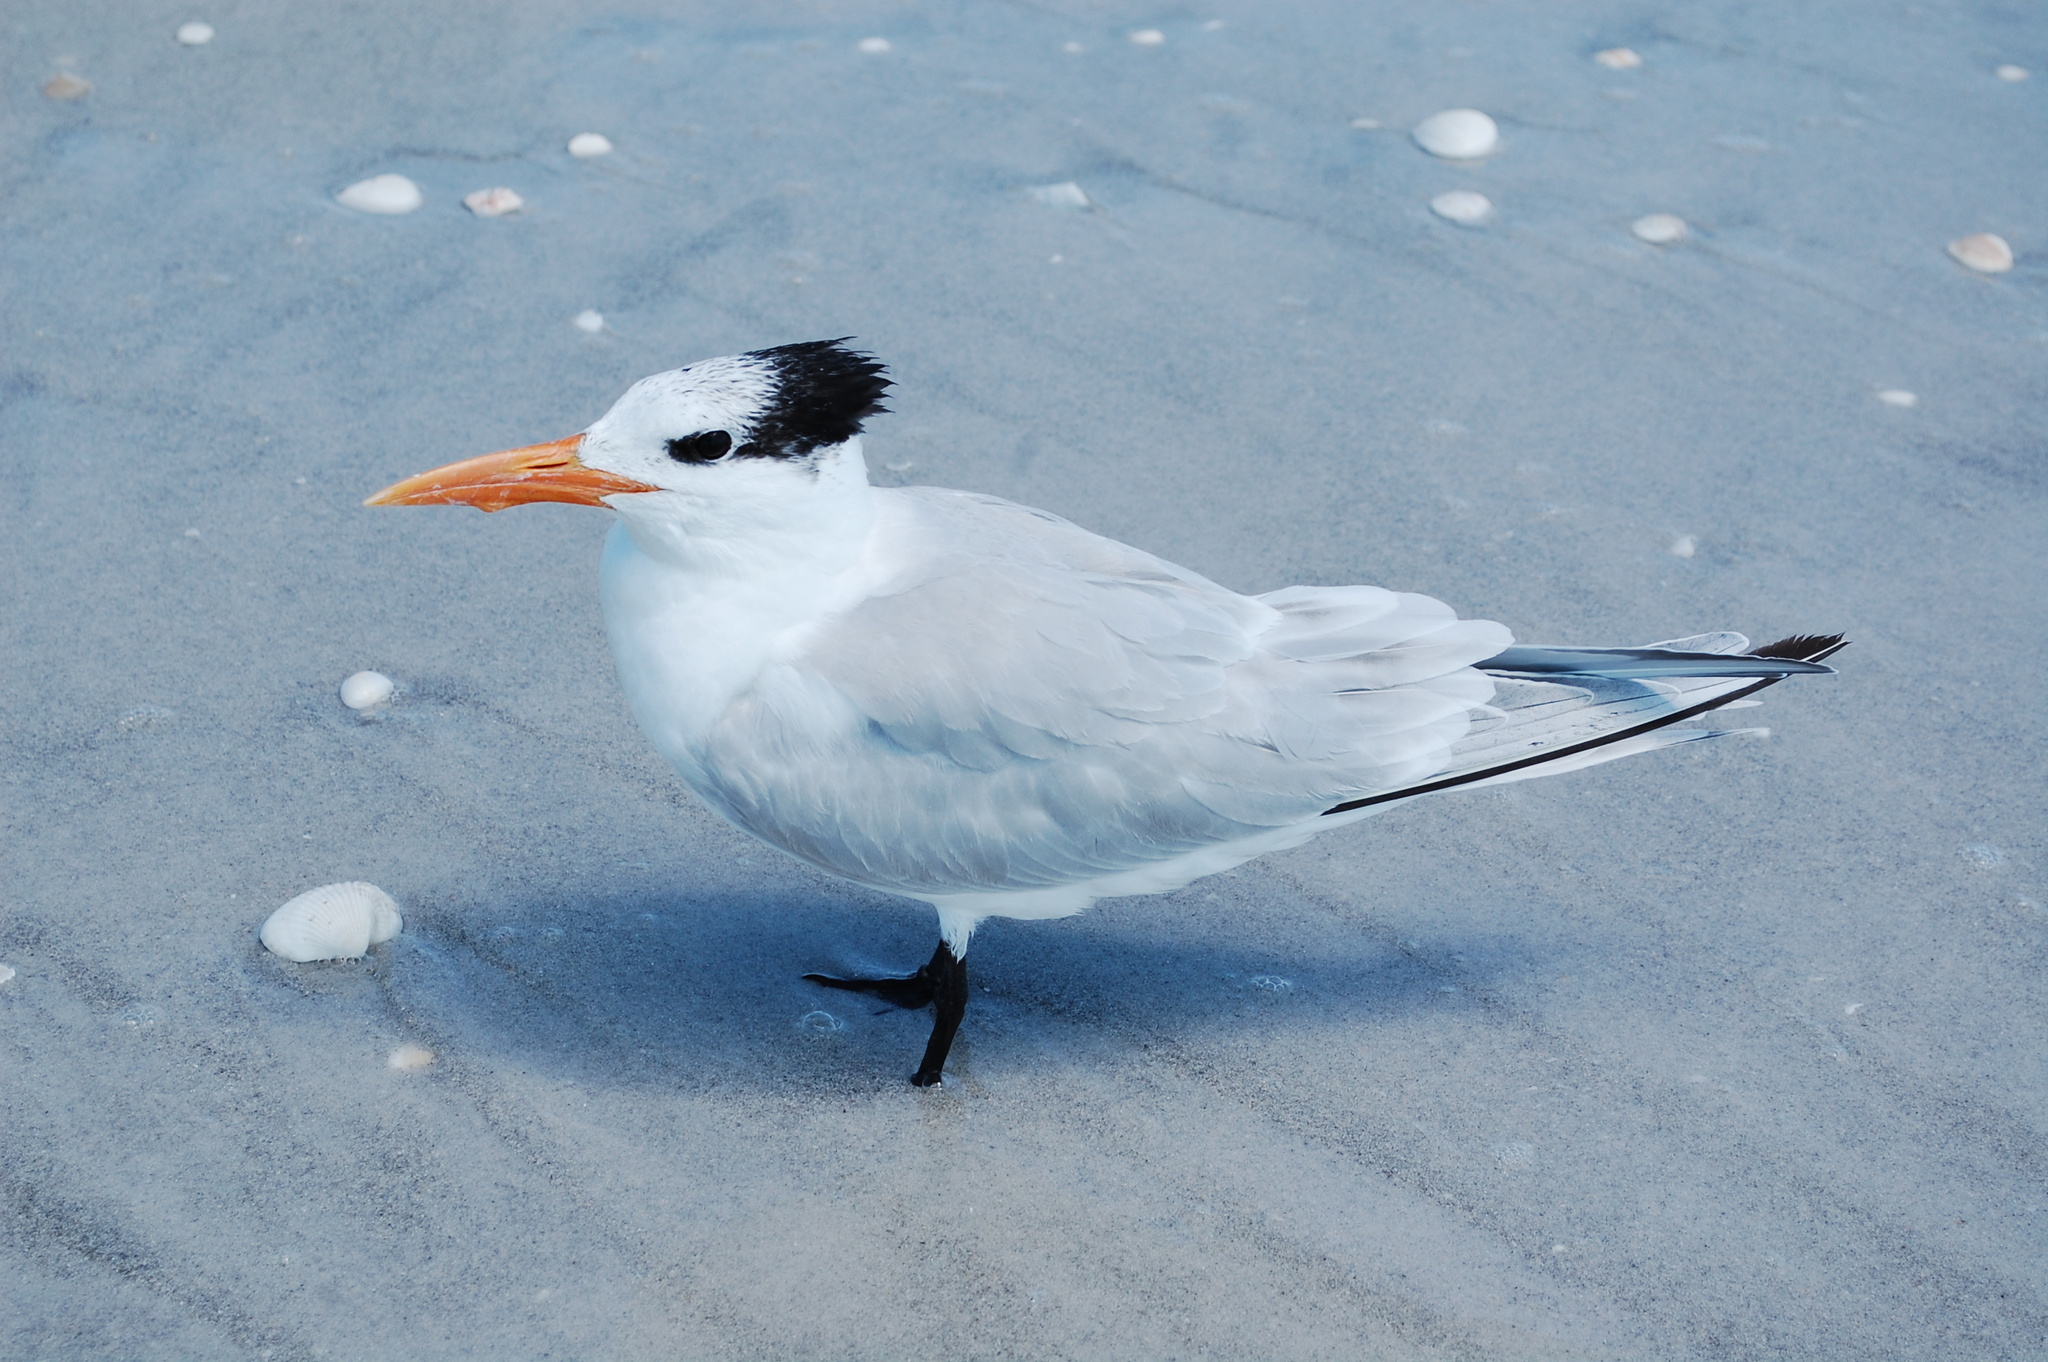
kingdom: Animalia
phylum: Chordata
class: Aves
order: Charadriiformes
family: Laridae
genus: Thalasseus
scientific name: Thalasseus maximus
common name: Royal tern
